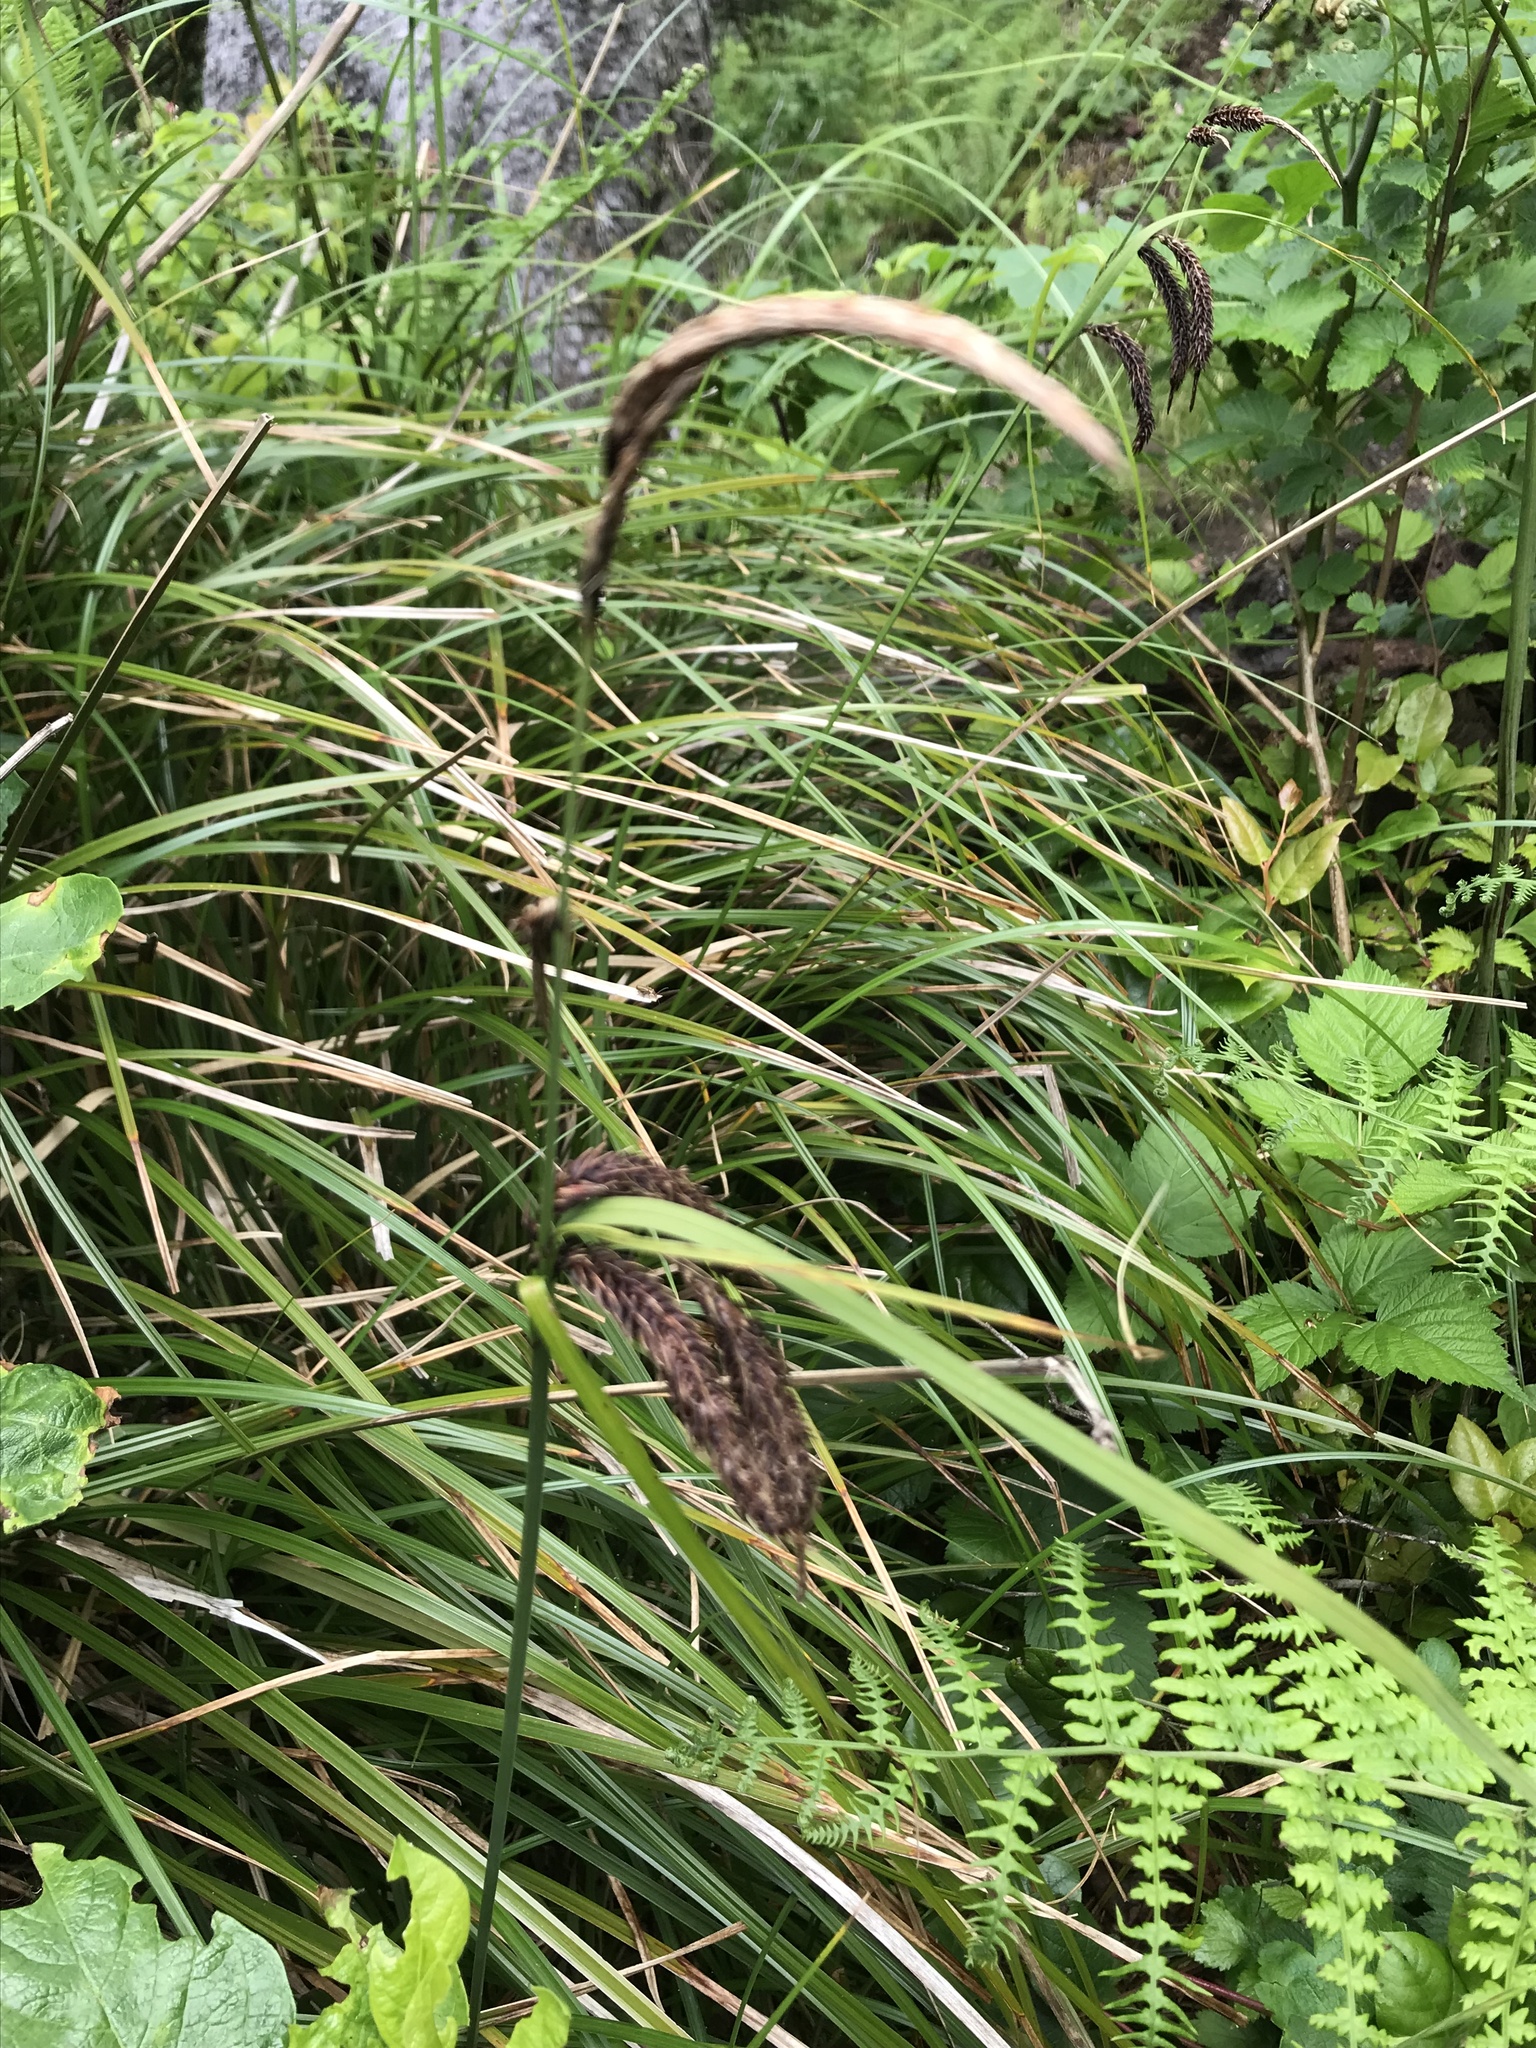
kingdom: Plantae
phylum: Tracheophyta
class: Liliopsida
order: Poales
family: Cyperaceae
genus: Carex
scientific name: Carex obnupta
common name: Slough sedge
